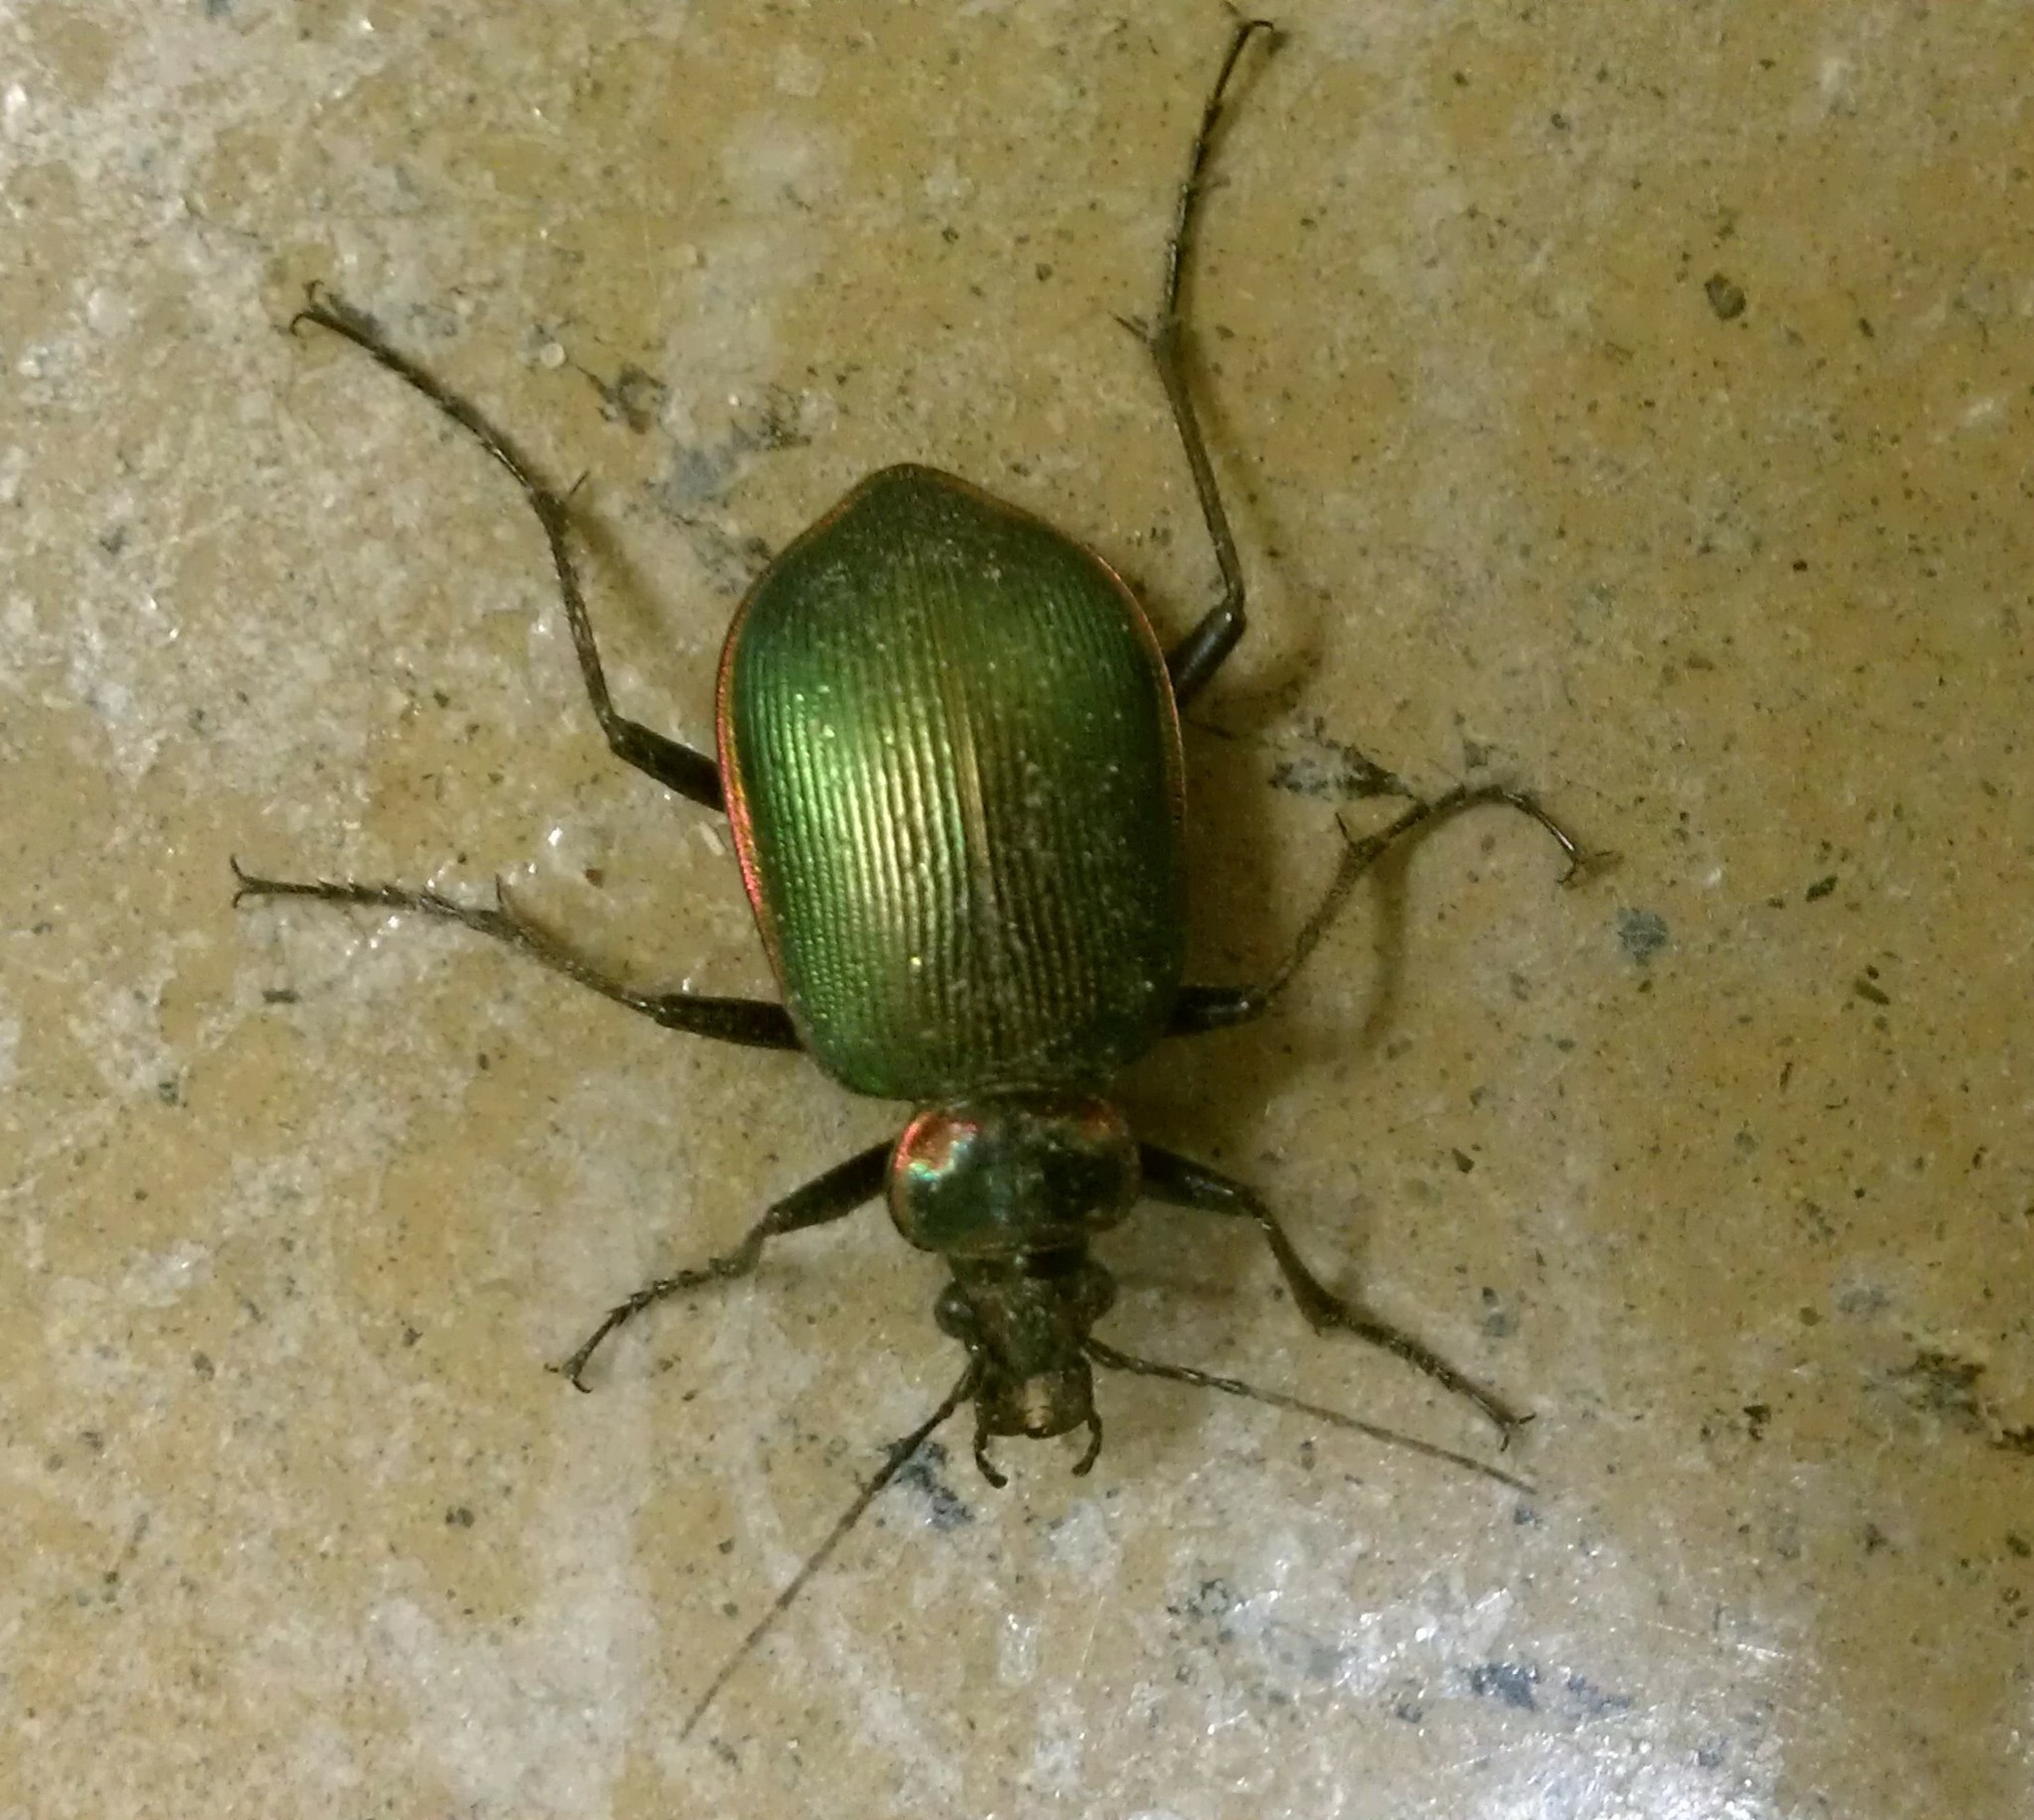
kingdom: Animalia
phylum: Arthropoda
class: Insecta
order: Coleoptera
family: Carabidae
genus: Calosoma
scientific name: Calosoma wilcoxi
